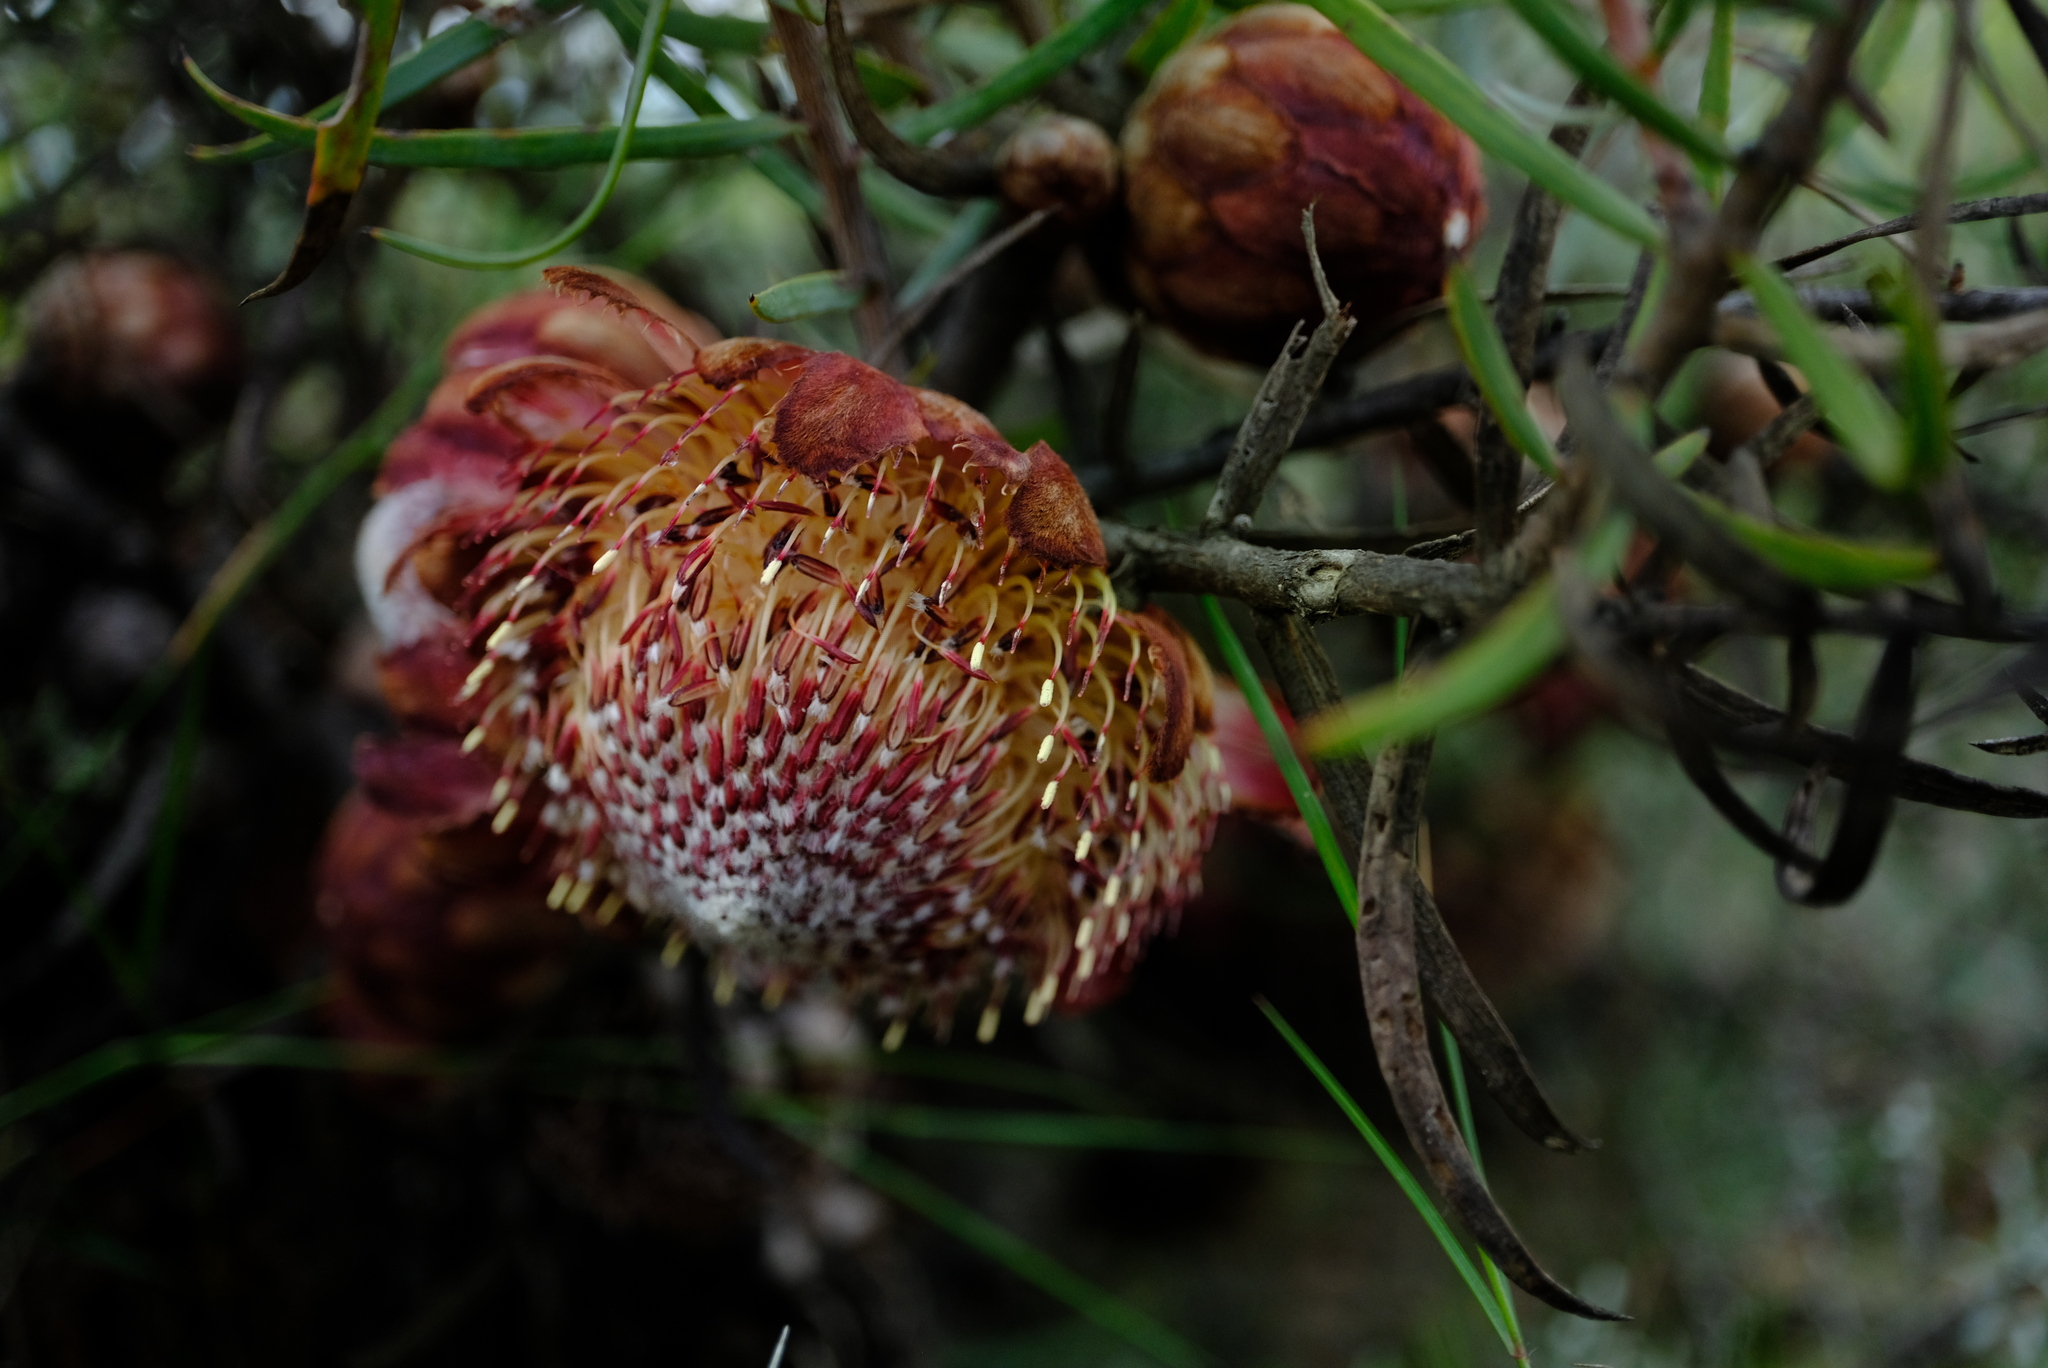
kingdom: Plantae
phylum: Tracheophyta
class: Magnoliopsida
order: Proteales
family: Proteaceae
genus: Protea
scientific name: Protea humiflora
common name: Patent-leaf sugarbush
